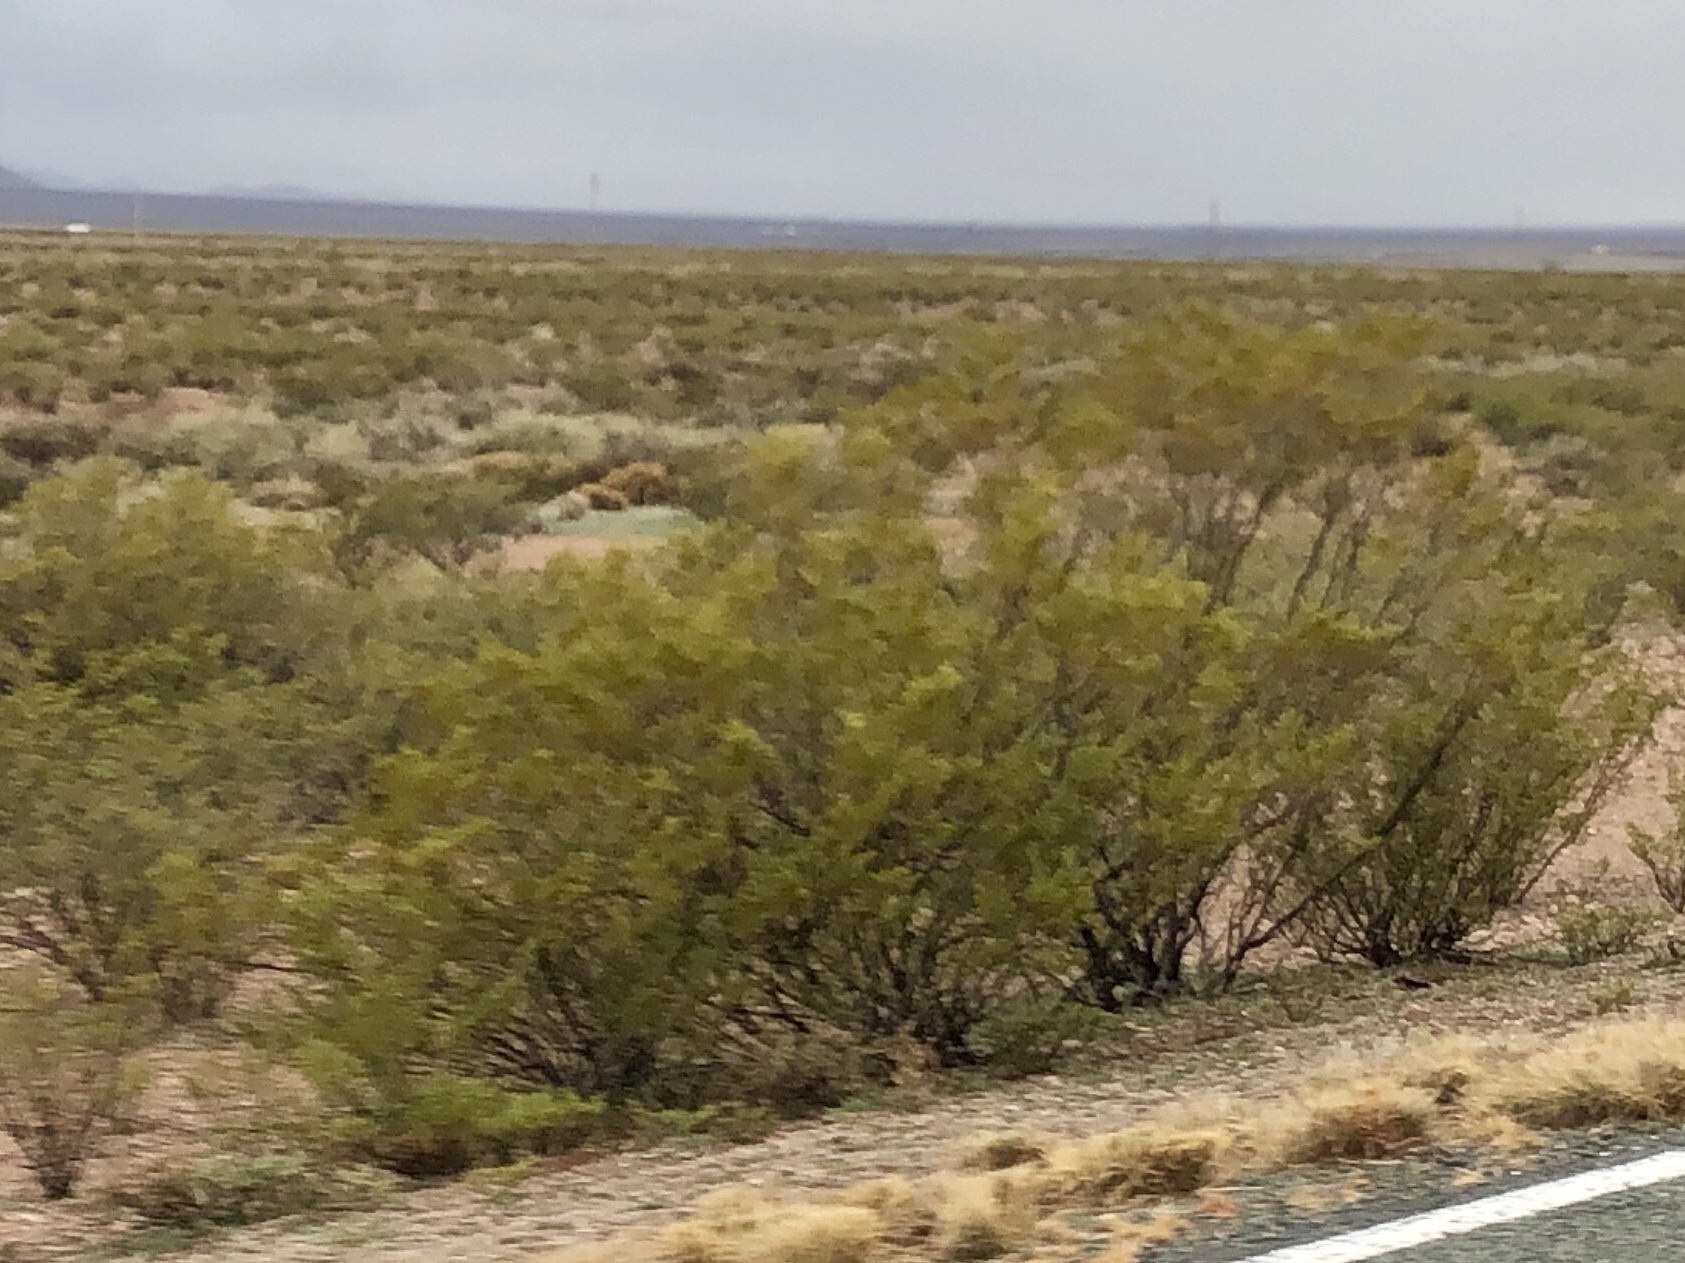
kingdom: Plantae
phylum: Tracheophyta
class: Magnoliopsida
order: Zygophyllales
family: Zygophyllaceae
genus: Larrea
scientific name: Larrea tridentata
